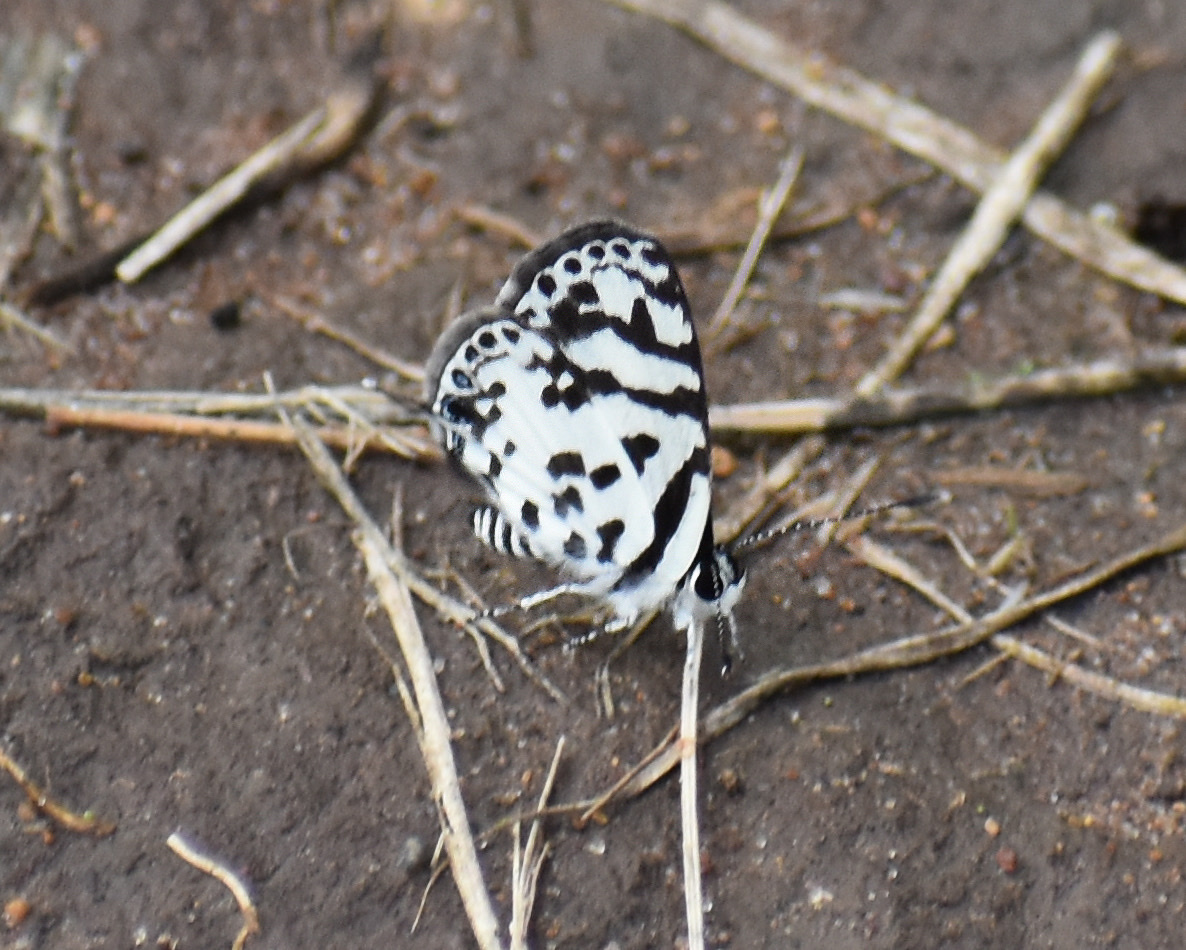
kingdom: Animalia
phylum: Arthropoda
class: Insecta
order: Lepidoptera
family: Lycaenidae
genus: Castalius
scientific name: Castalius melaena
